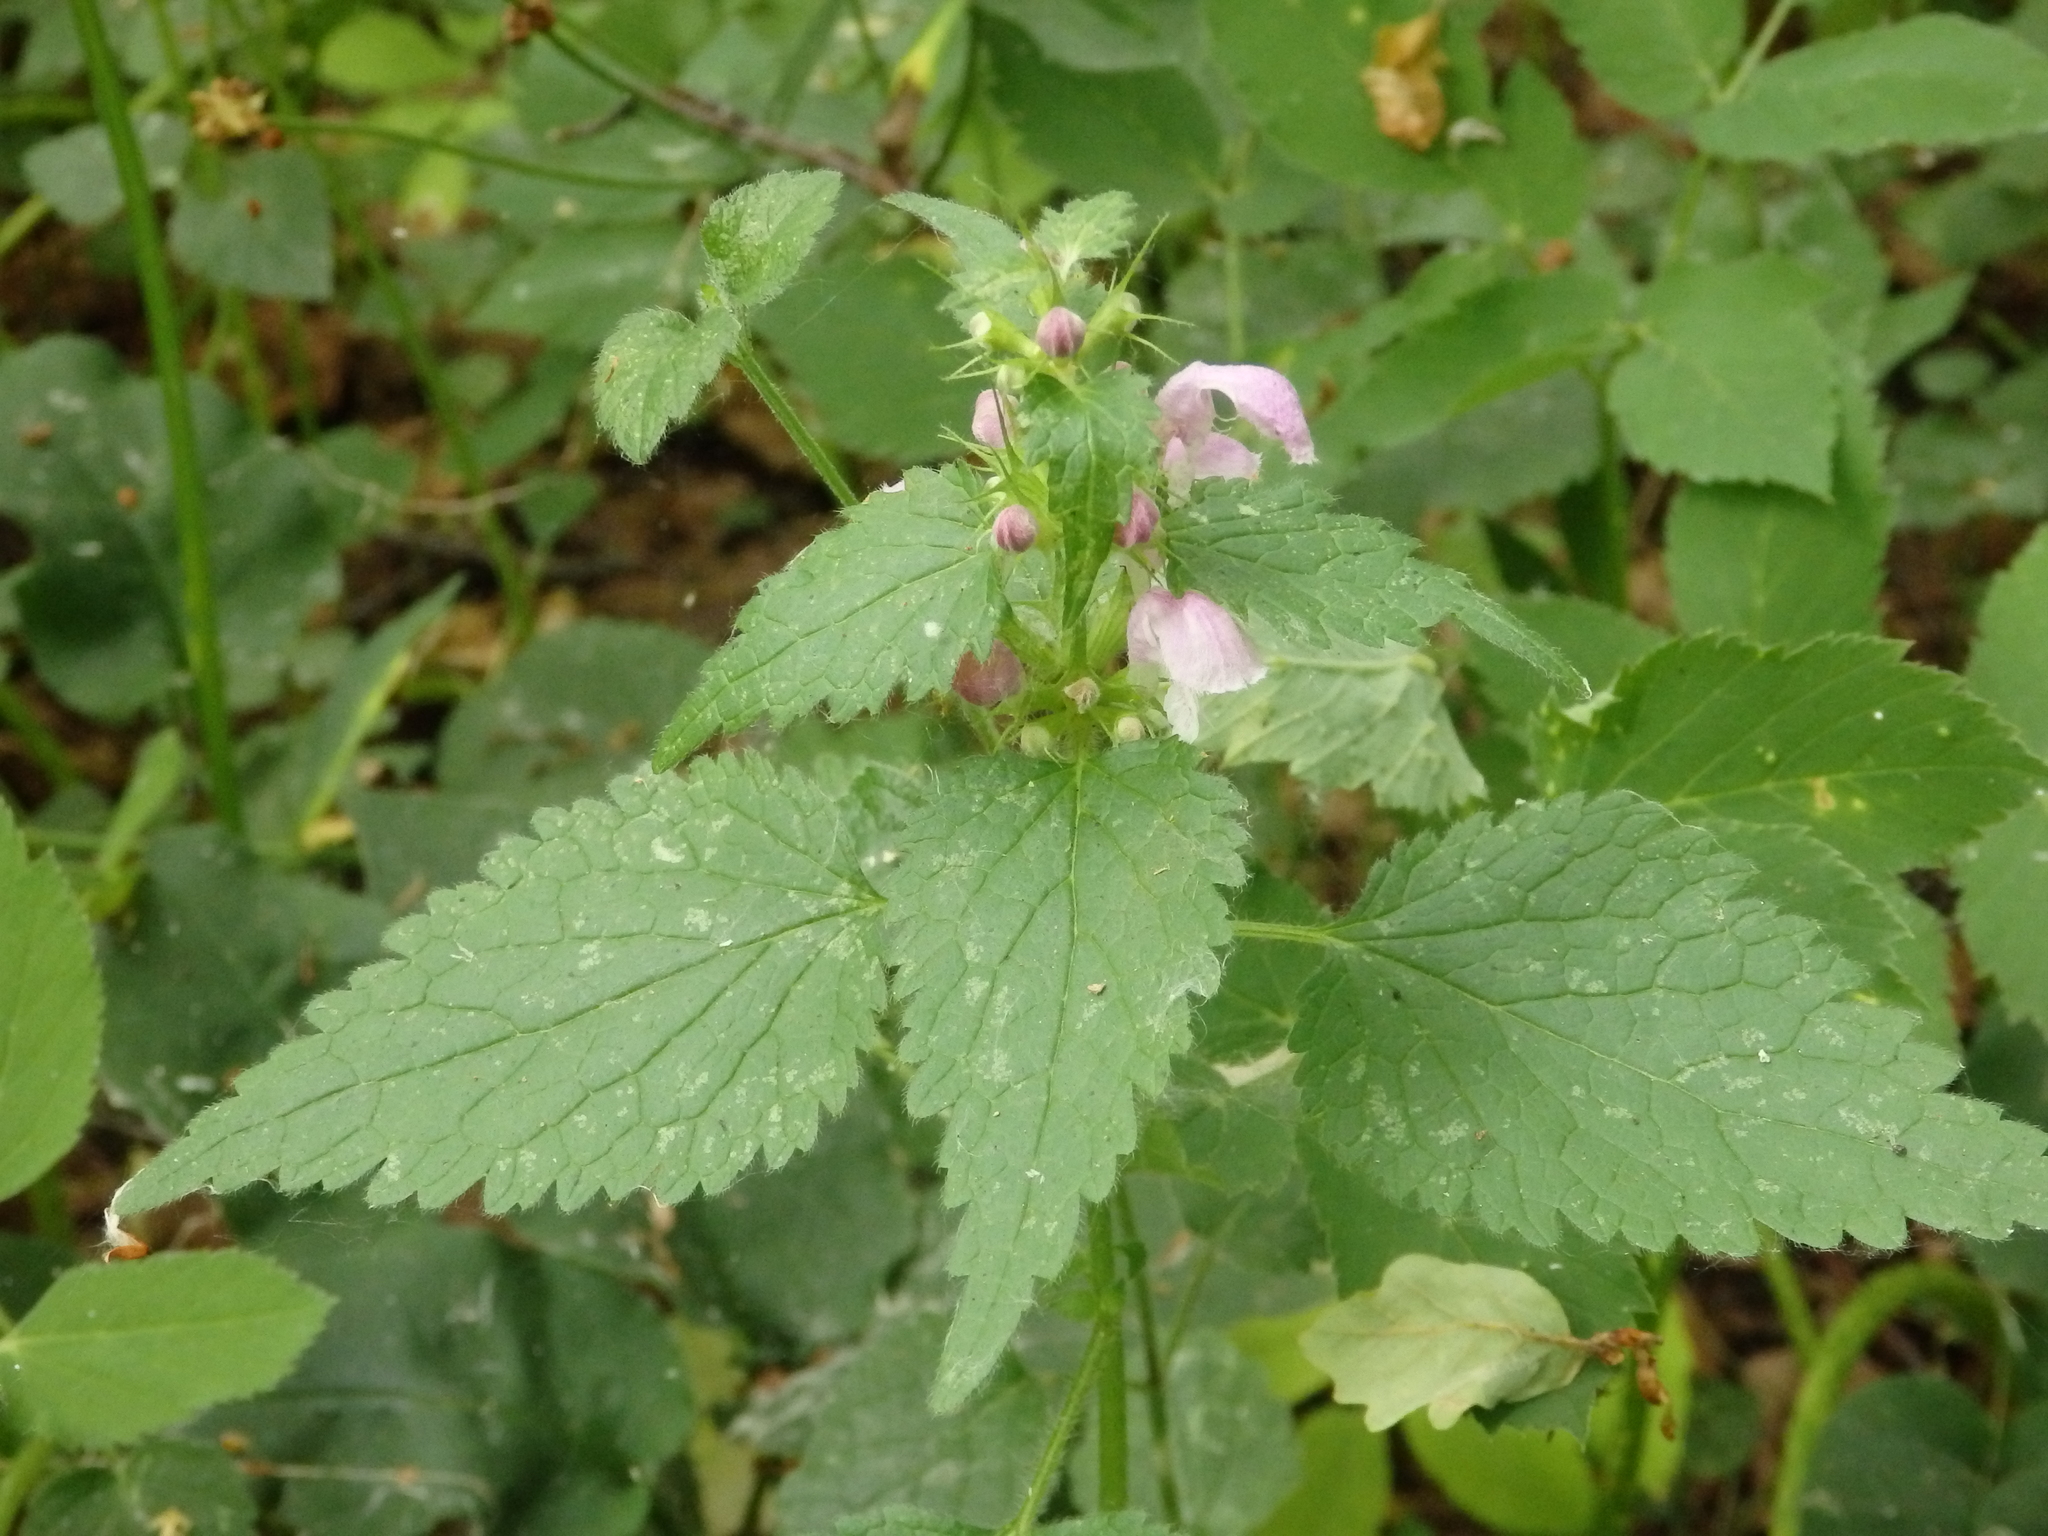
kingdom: Plantae
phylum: Tracheophyta
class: Magnoliopsida
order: Lamiales
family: Lamiaceae
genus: Lamium
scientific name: Lamium maculatum
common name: Spotted dead-nettle
